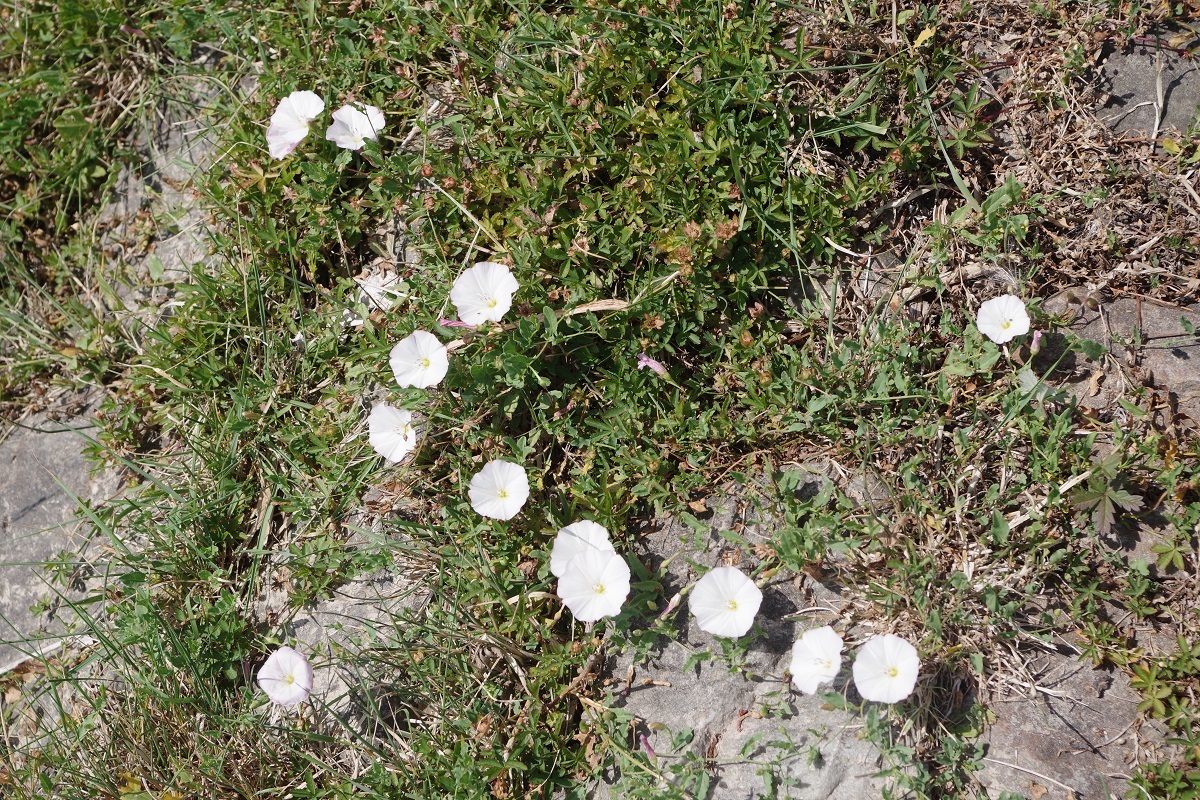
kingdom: Plantae
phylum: Tracheophyta
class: Magnoliopsida
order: Solanales
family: Convolvulaceae
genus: Convolvulus
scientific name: Convolvulus arvensis
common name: Field bindweed
